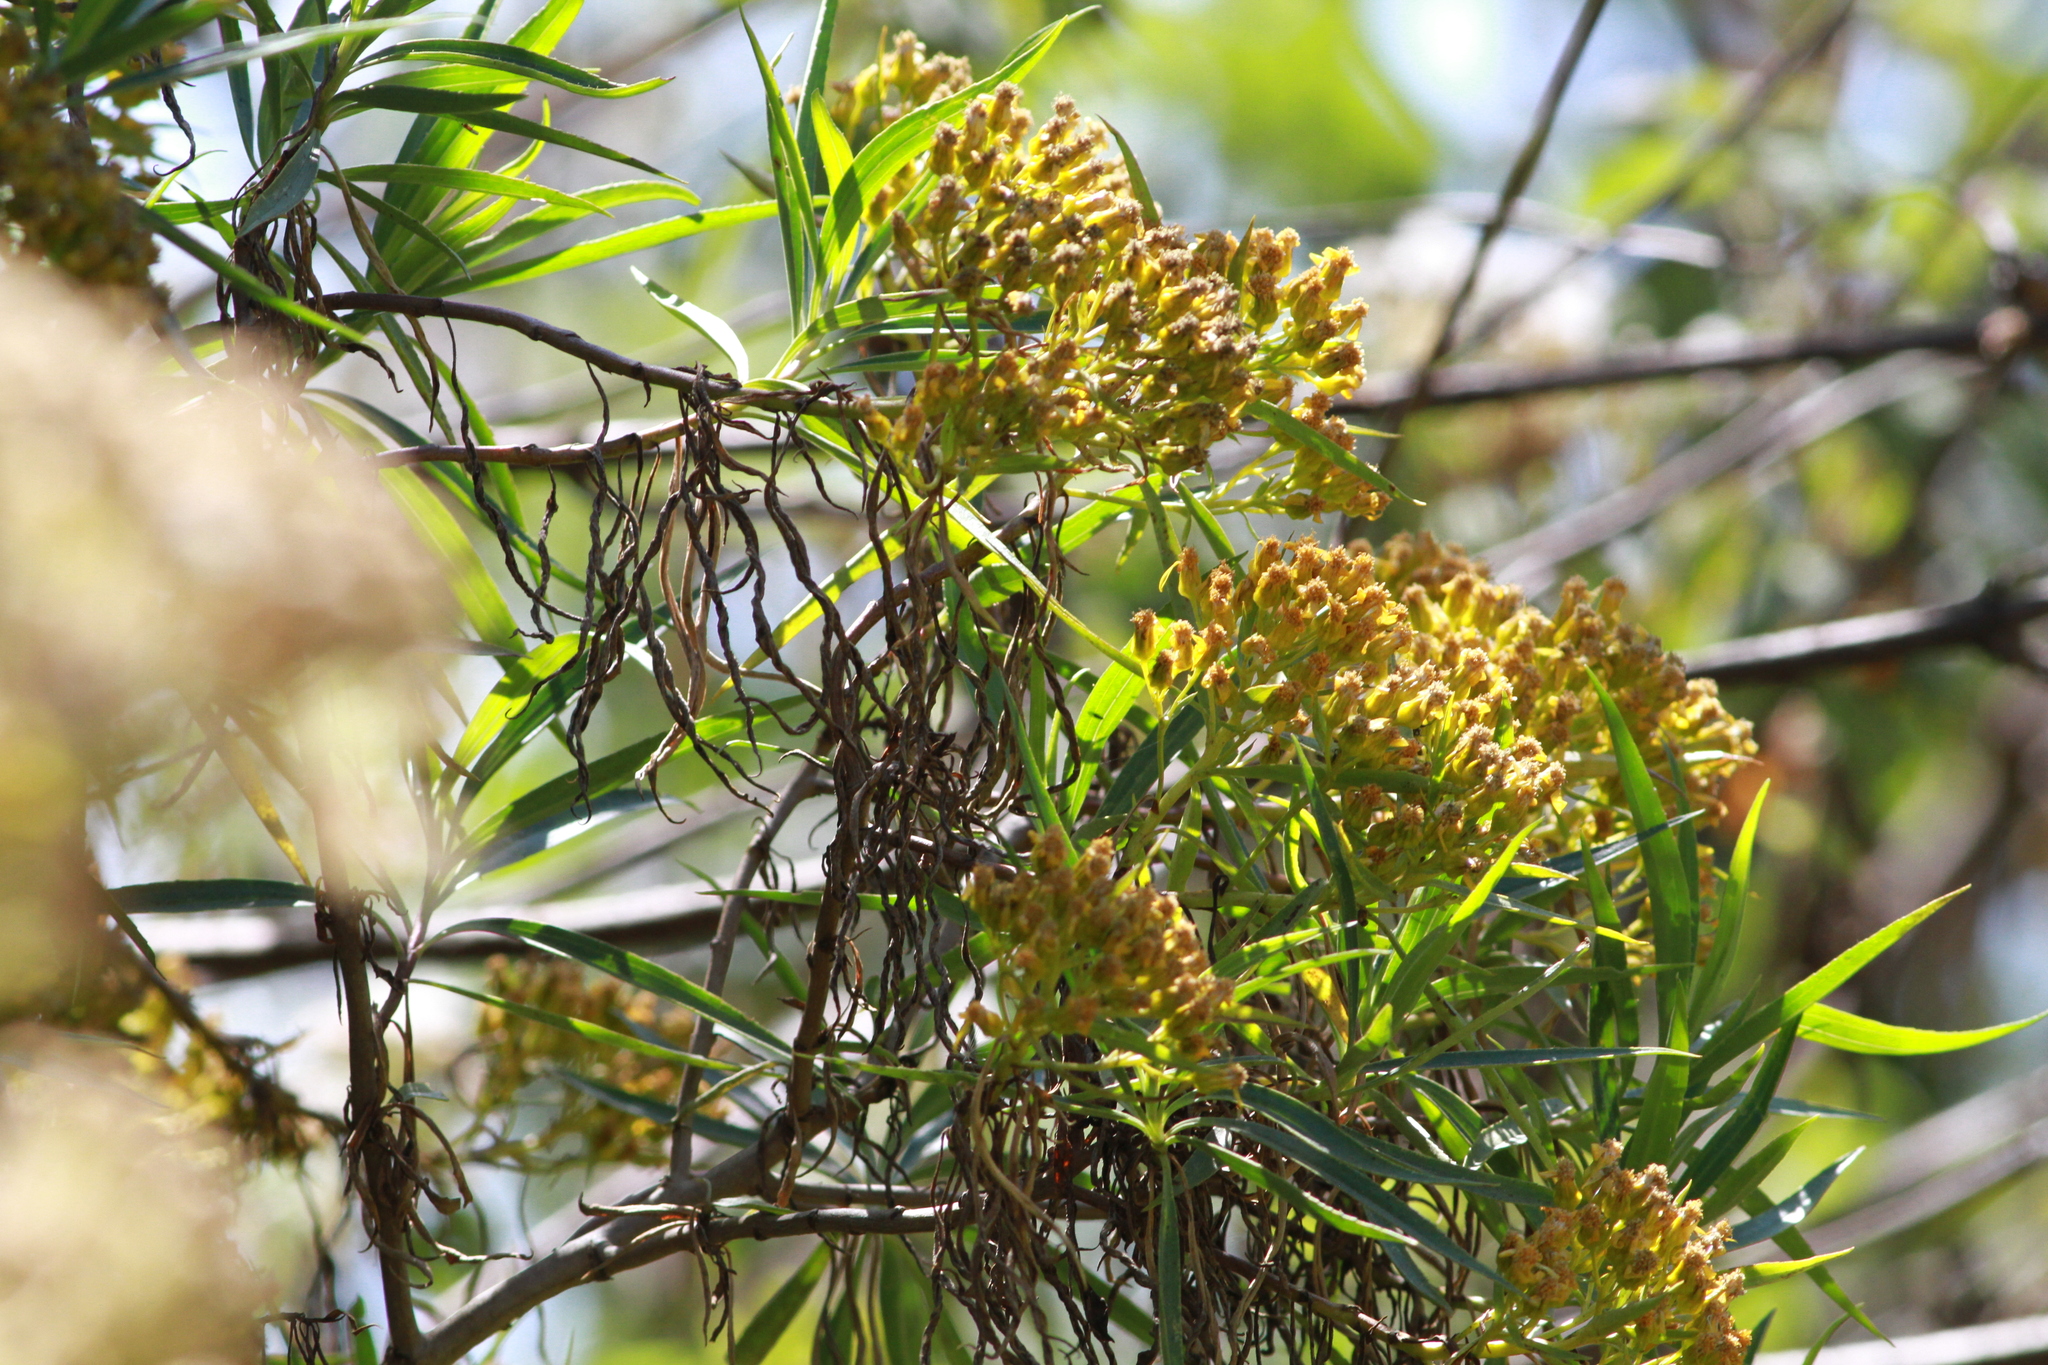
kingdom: Plantae
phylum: Tracheophyta
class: Magnoliopsida
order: Asterales
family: Asteraceae
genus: Barkleyanthus
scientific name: Barkleyanthus salicifolius
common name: Willow ragwort
